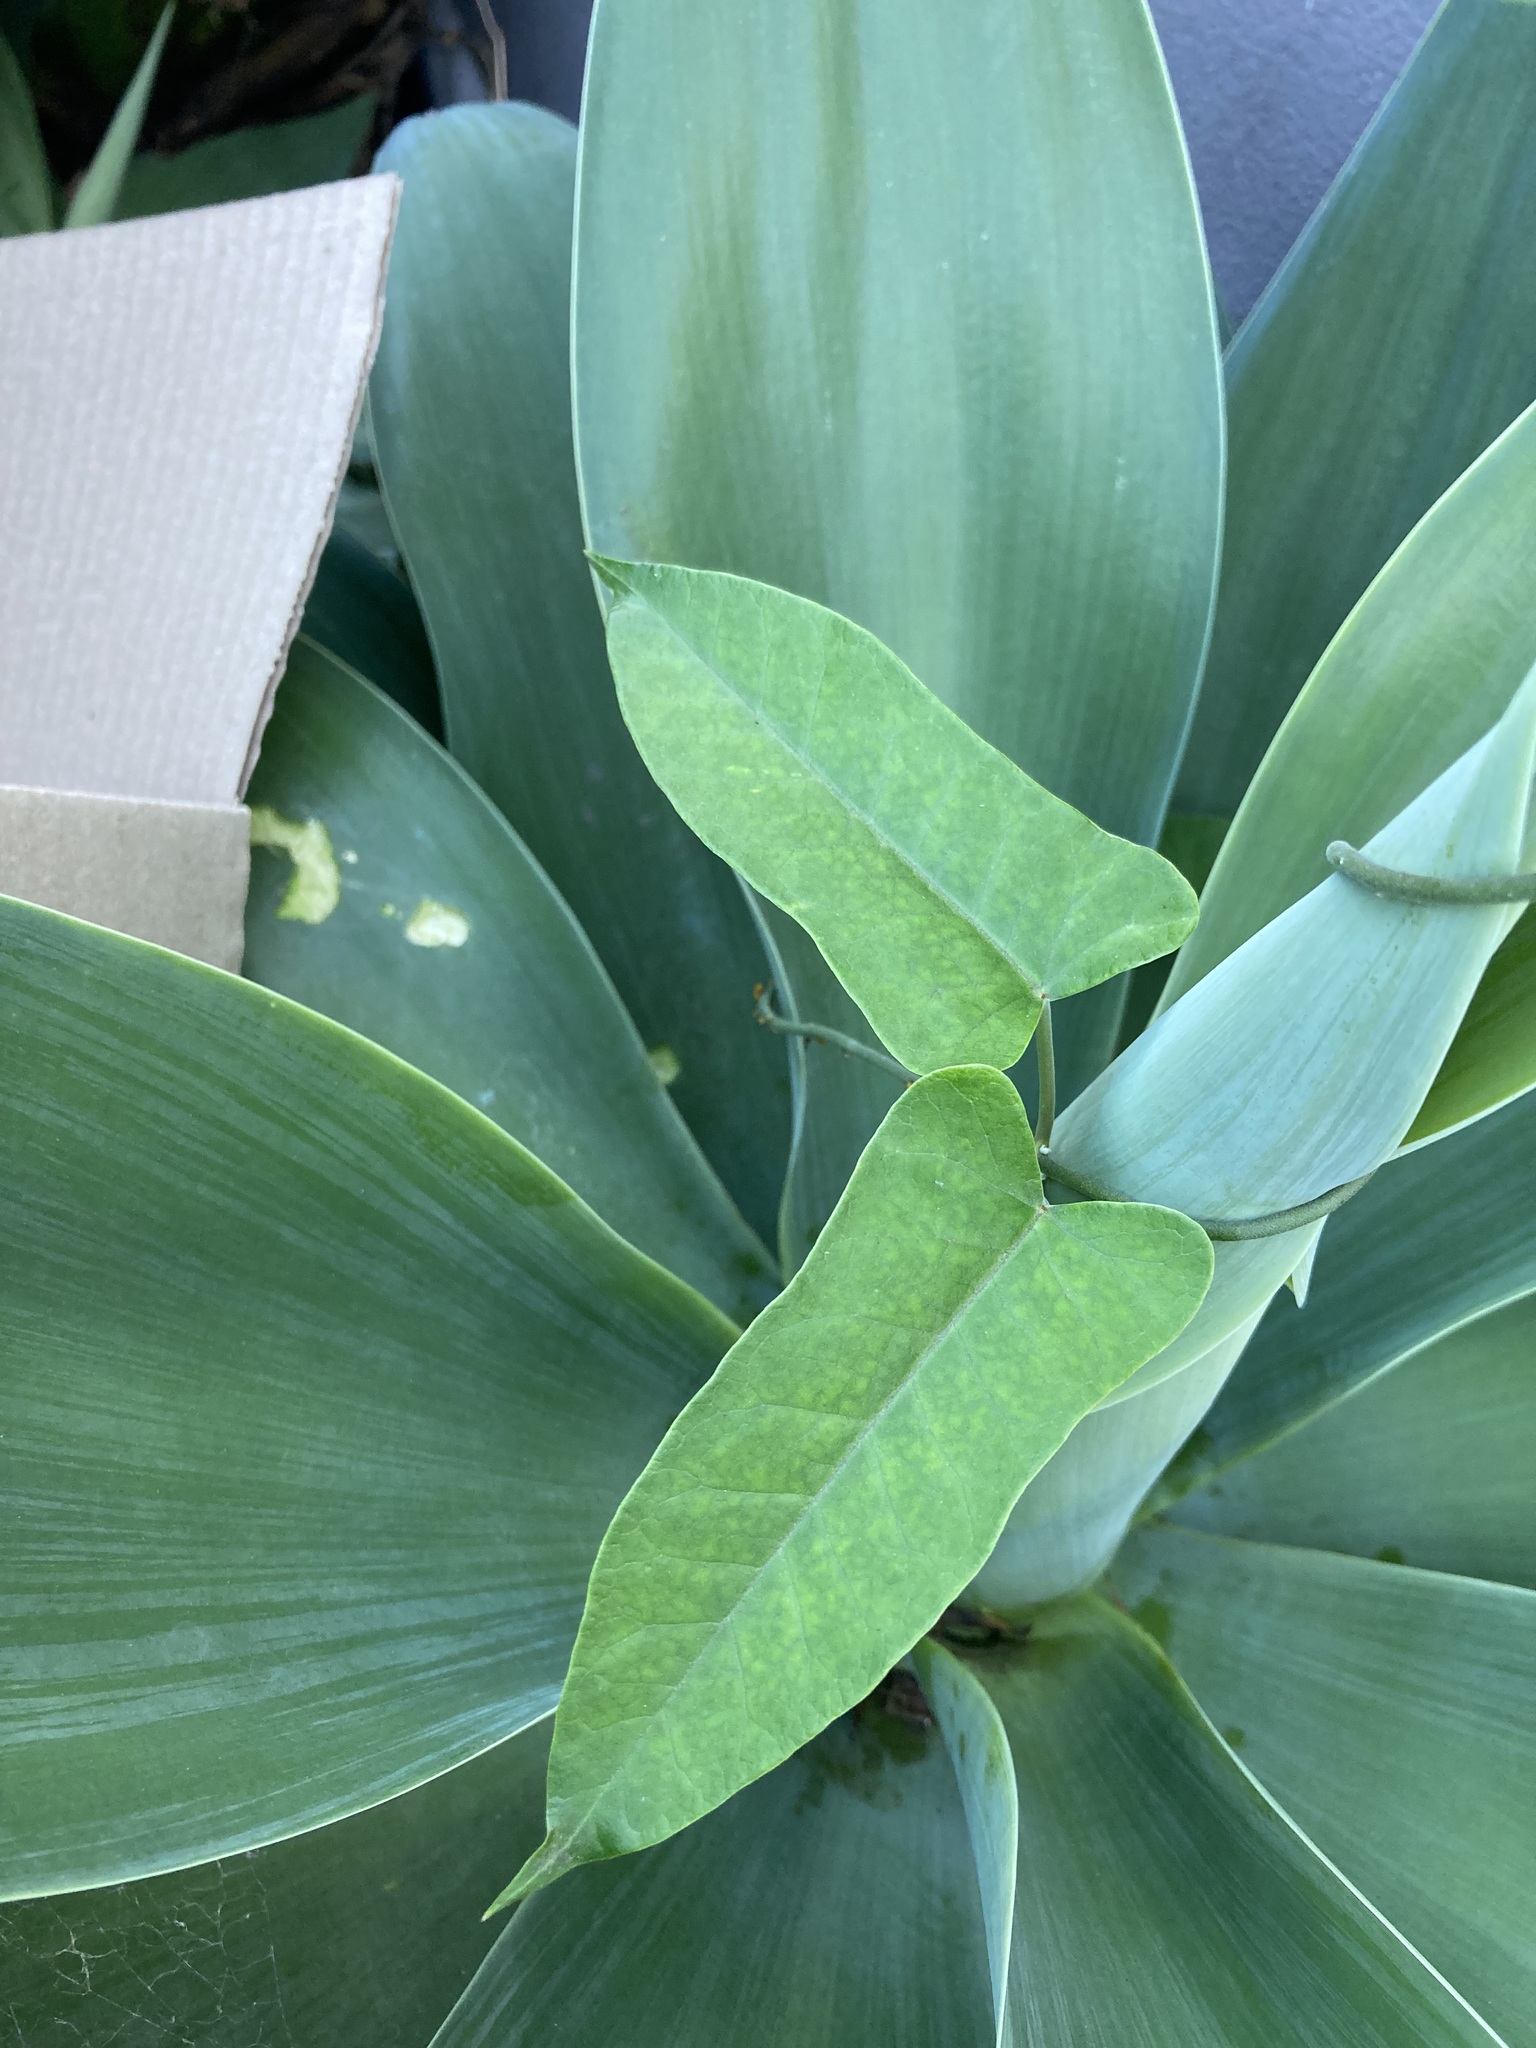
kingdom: Plantae
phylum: Tracheophyta
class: Magnoliopsida
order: Gentianales
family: Apocynaceae
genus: Araujia
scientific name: Araujia sericifera
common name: White bladderflower
